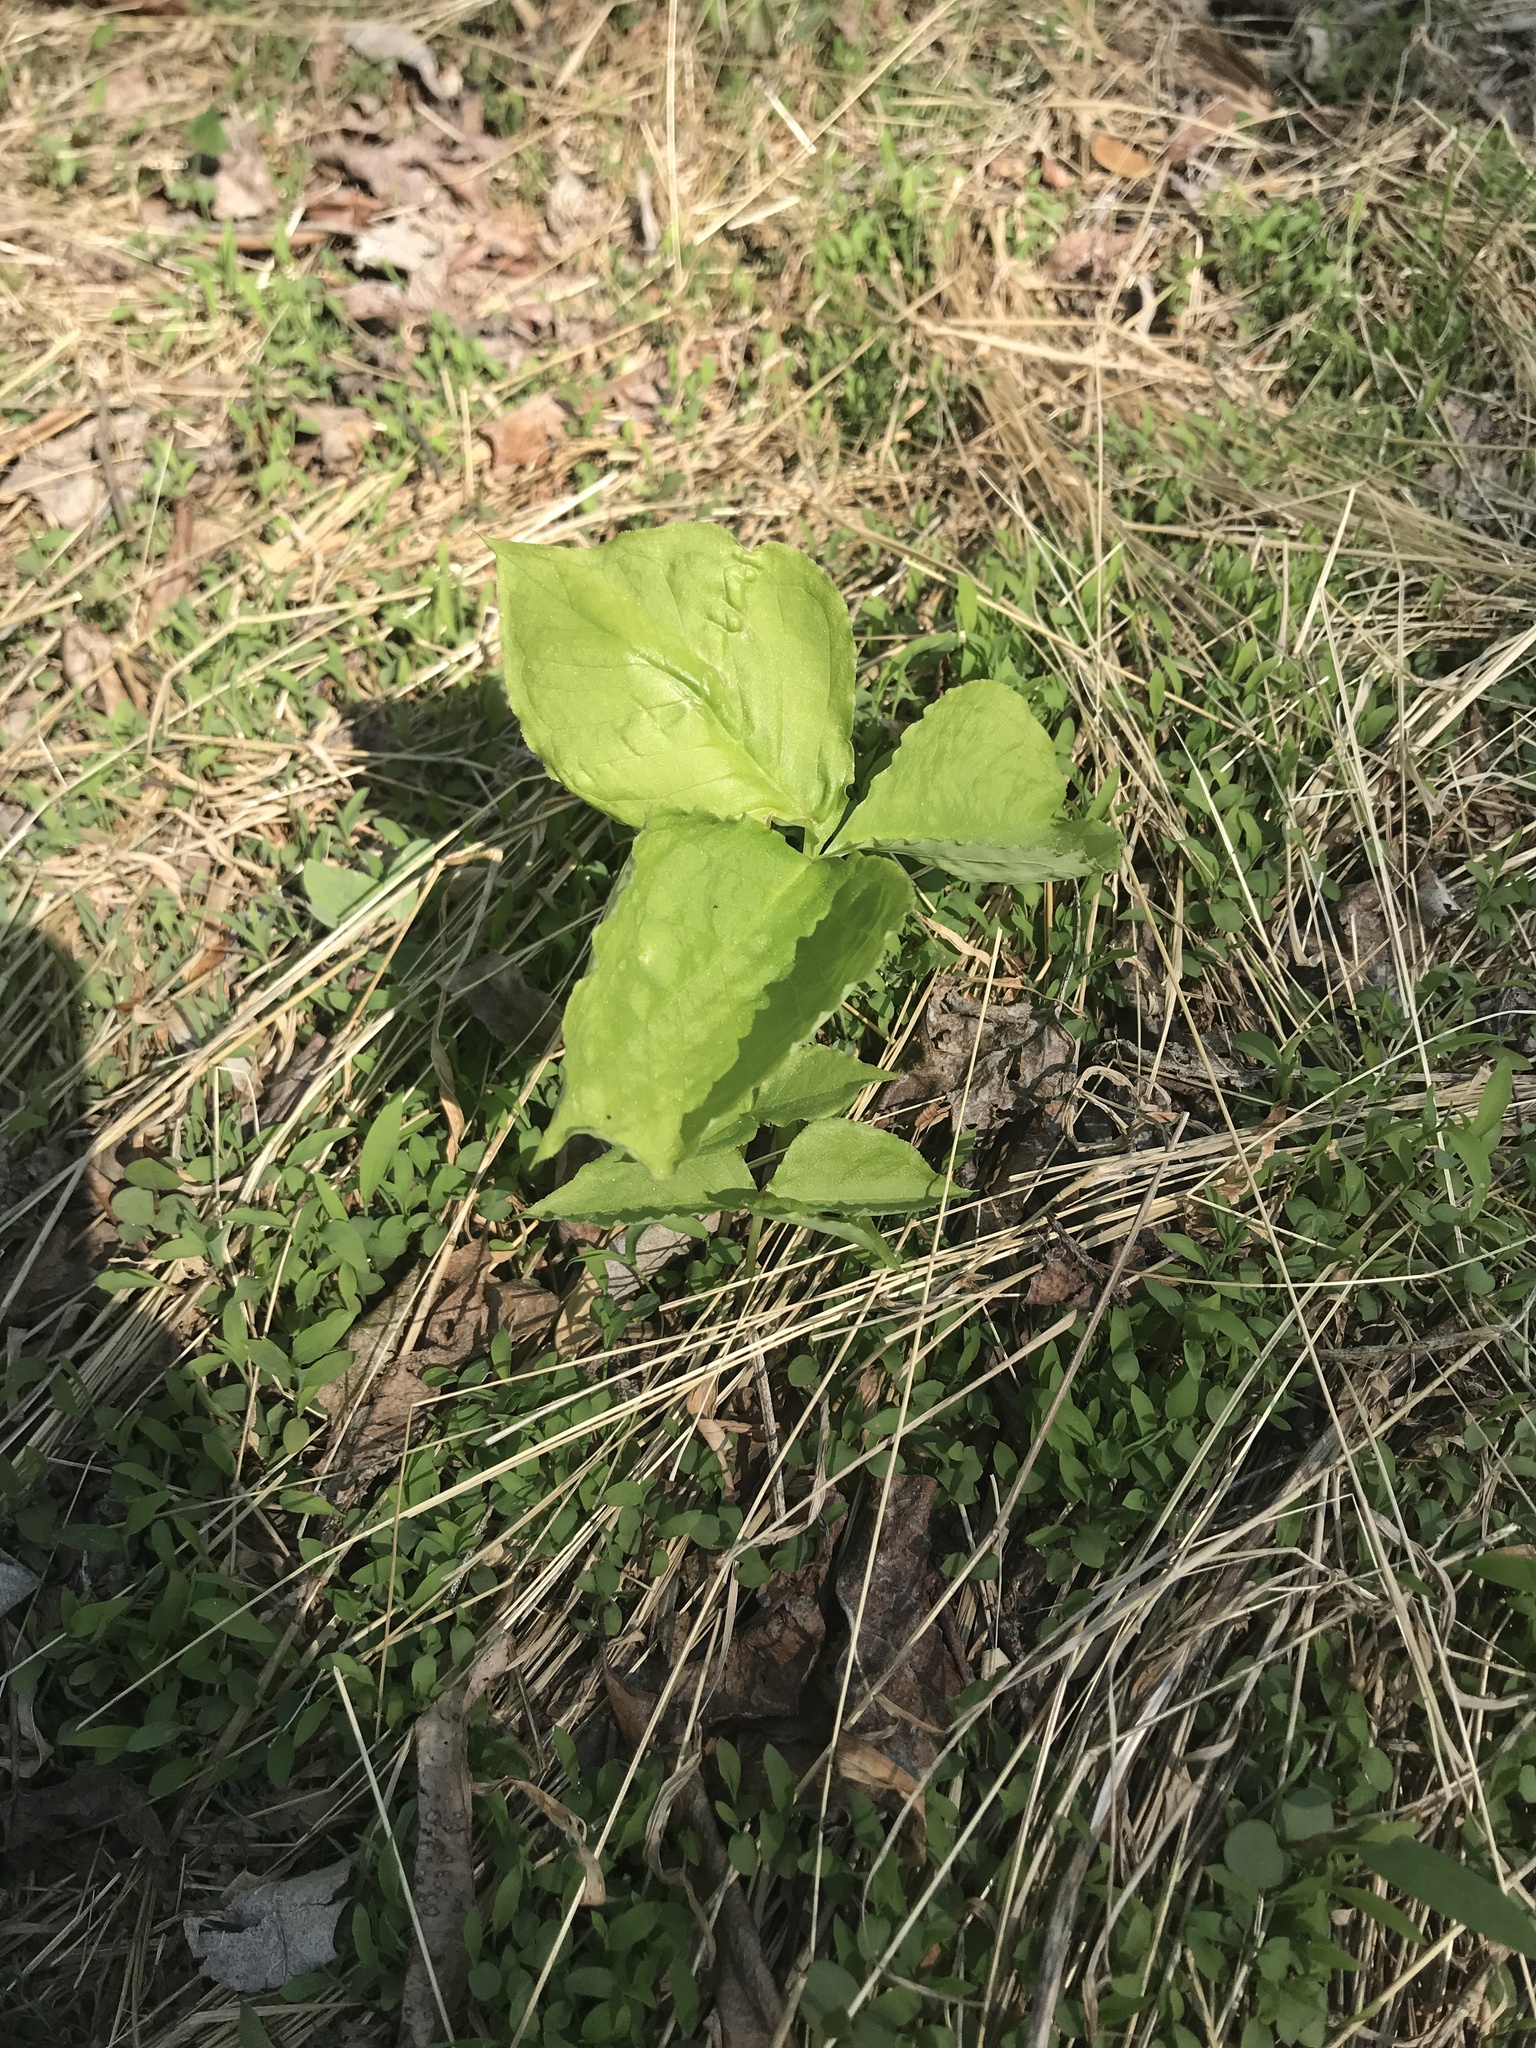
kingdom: Plantae
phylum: Tracheophyta
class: Liliopsida
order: Alismatales
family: Araceae
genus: Arisaema
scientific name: Arisaema triphyllum
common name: Jack-in-the-pulpit
